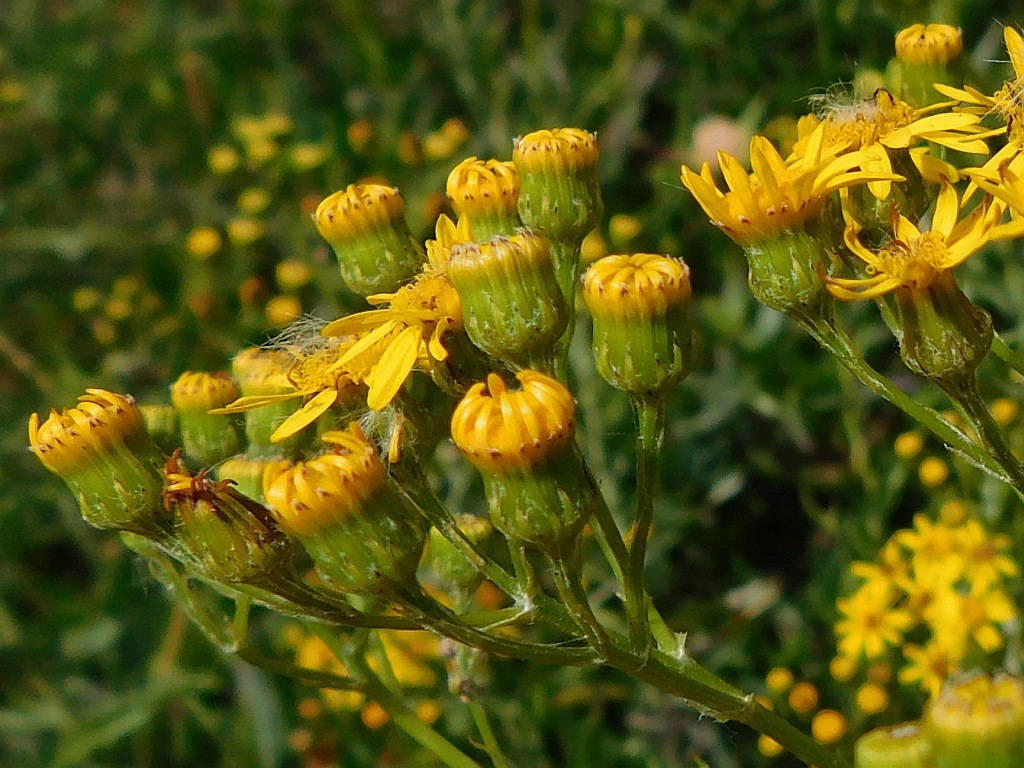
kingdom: Plantae
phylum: Tracheophyta
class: Magnoliopsida
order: Asterales
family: Asteraceae
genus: Senecio
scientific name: Senecio pterophorus
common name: Shoddy ragwort
